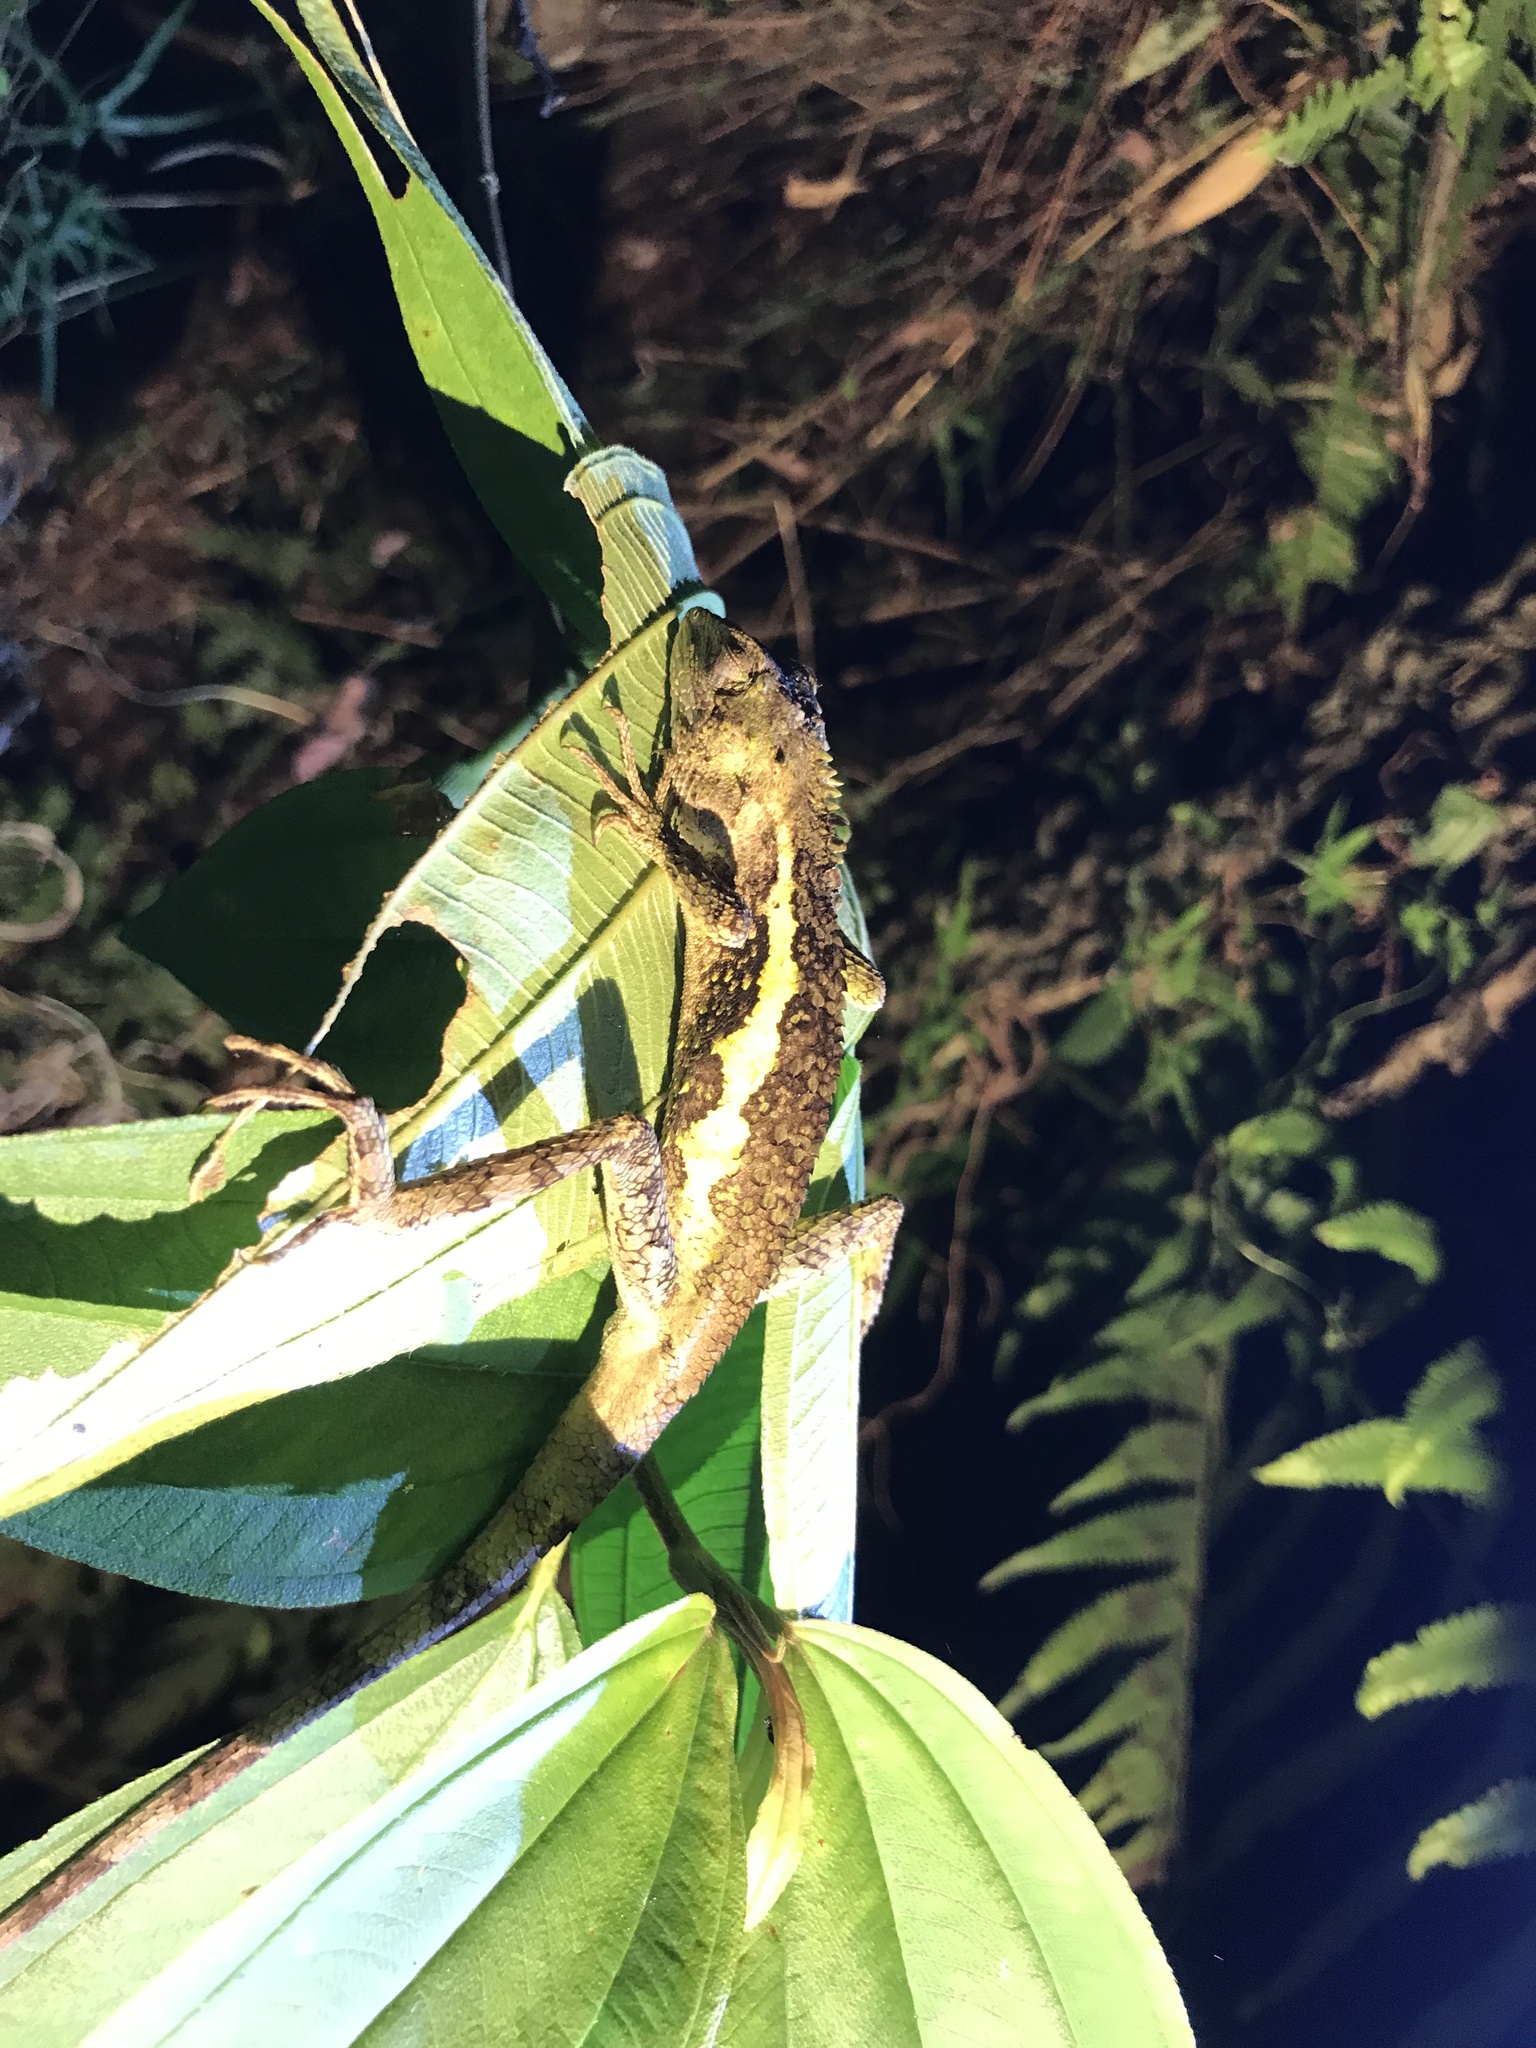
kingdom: Animalia
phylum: Chordata
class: Squamata
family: Agamidae
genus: Diploderma
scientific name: Diploderma swinhonis
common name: Taiwan japalure
